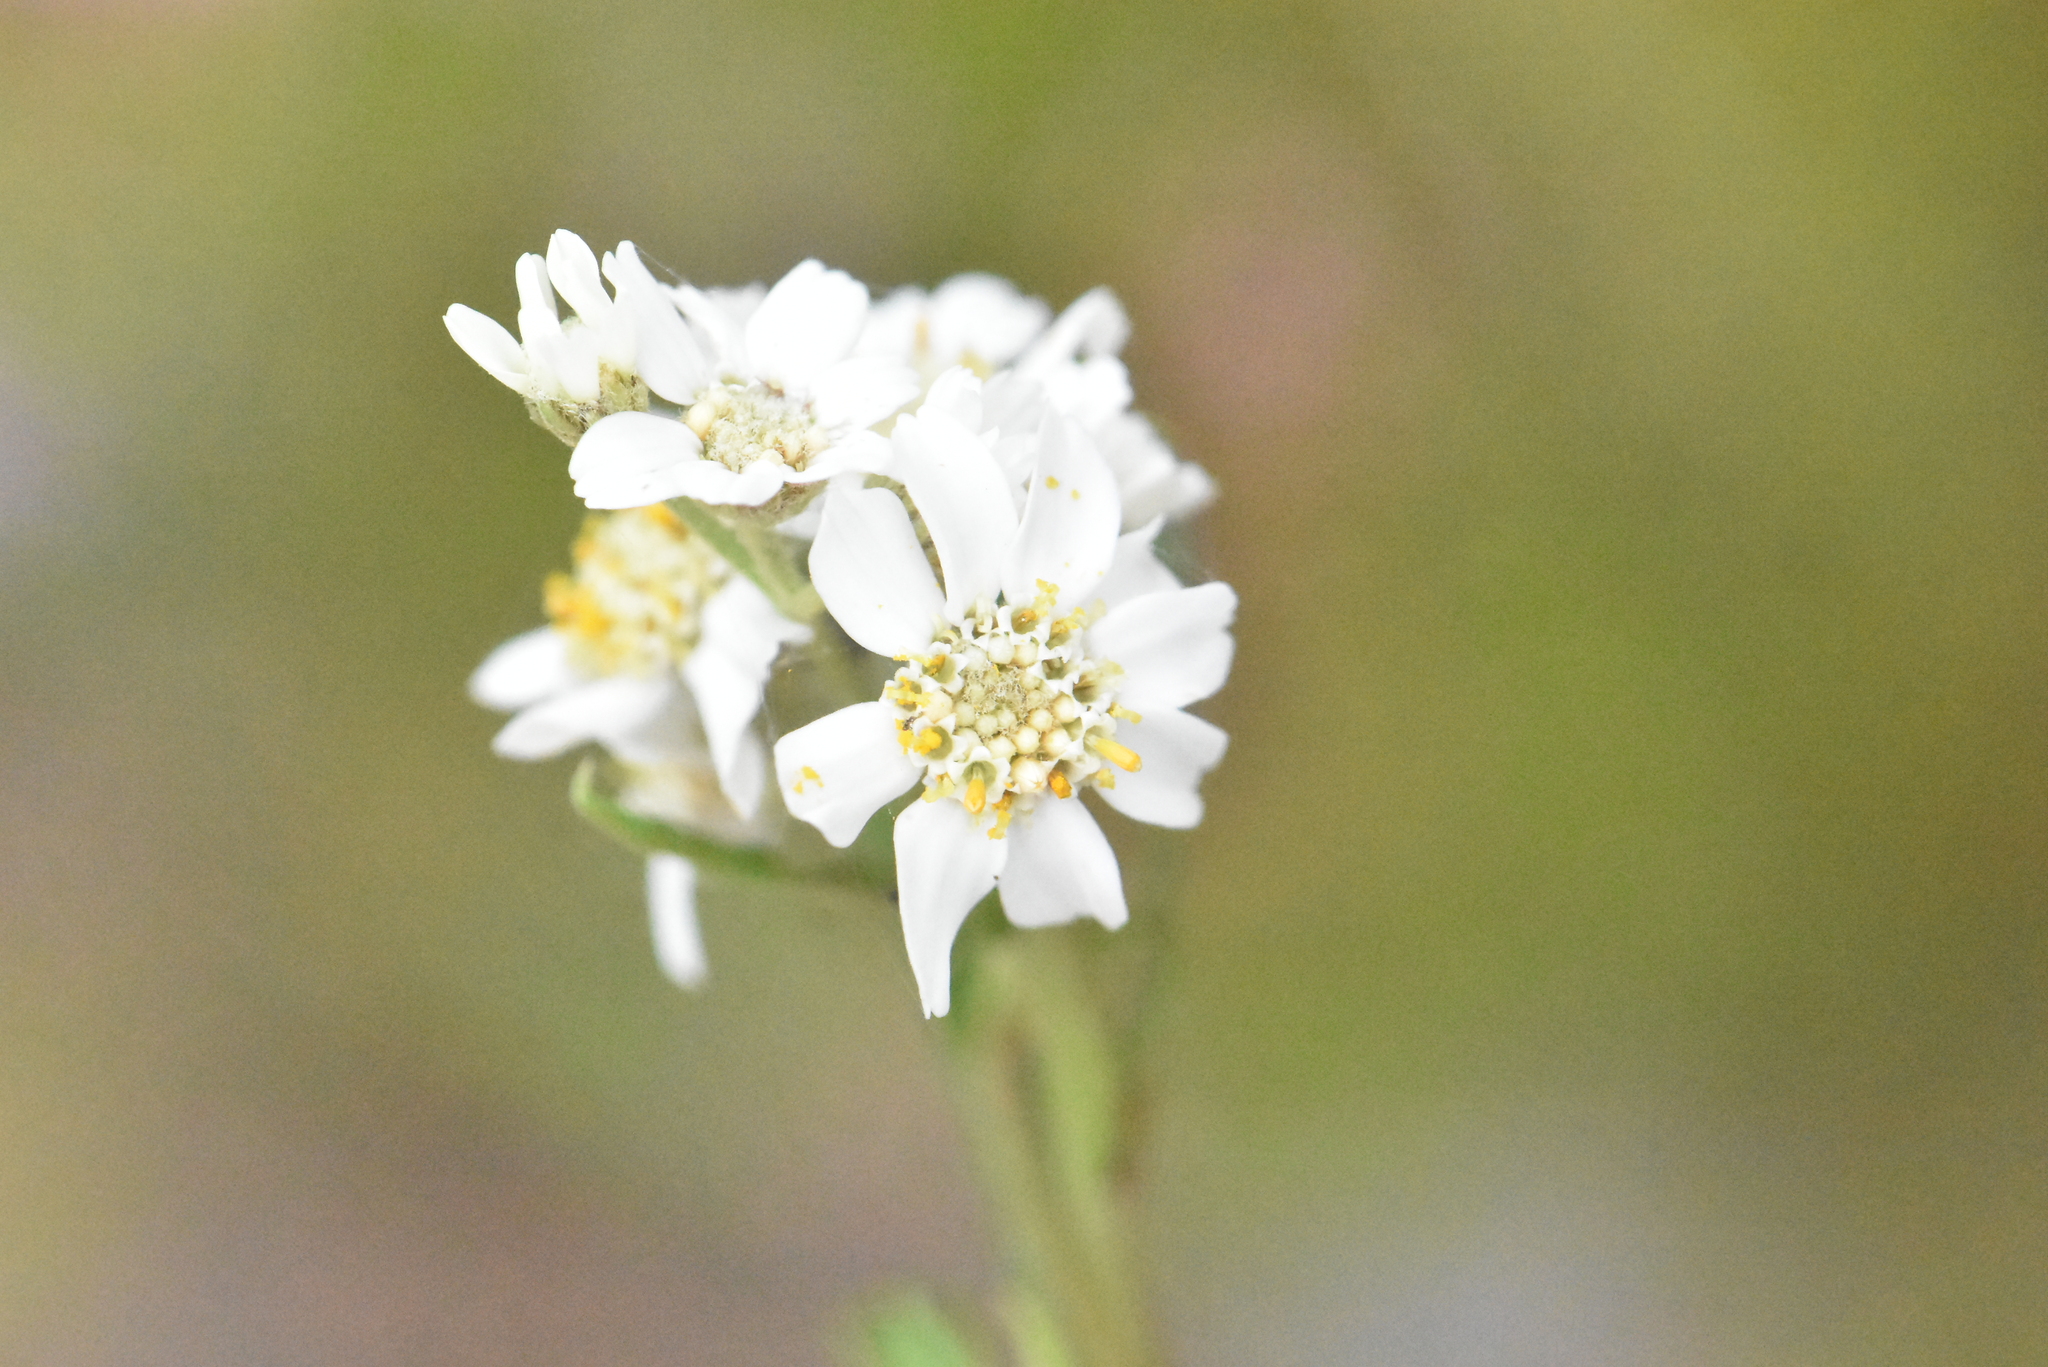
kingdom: Plantae
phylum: Tracheophyta
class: Magnoliopsida
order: Asterales
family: Asteraceae
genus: Achillea
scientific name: Achillea ptarmica
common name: Sneezeweed
